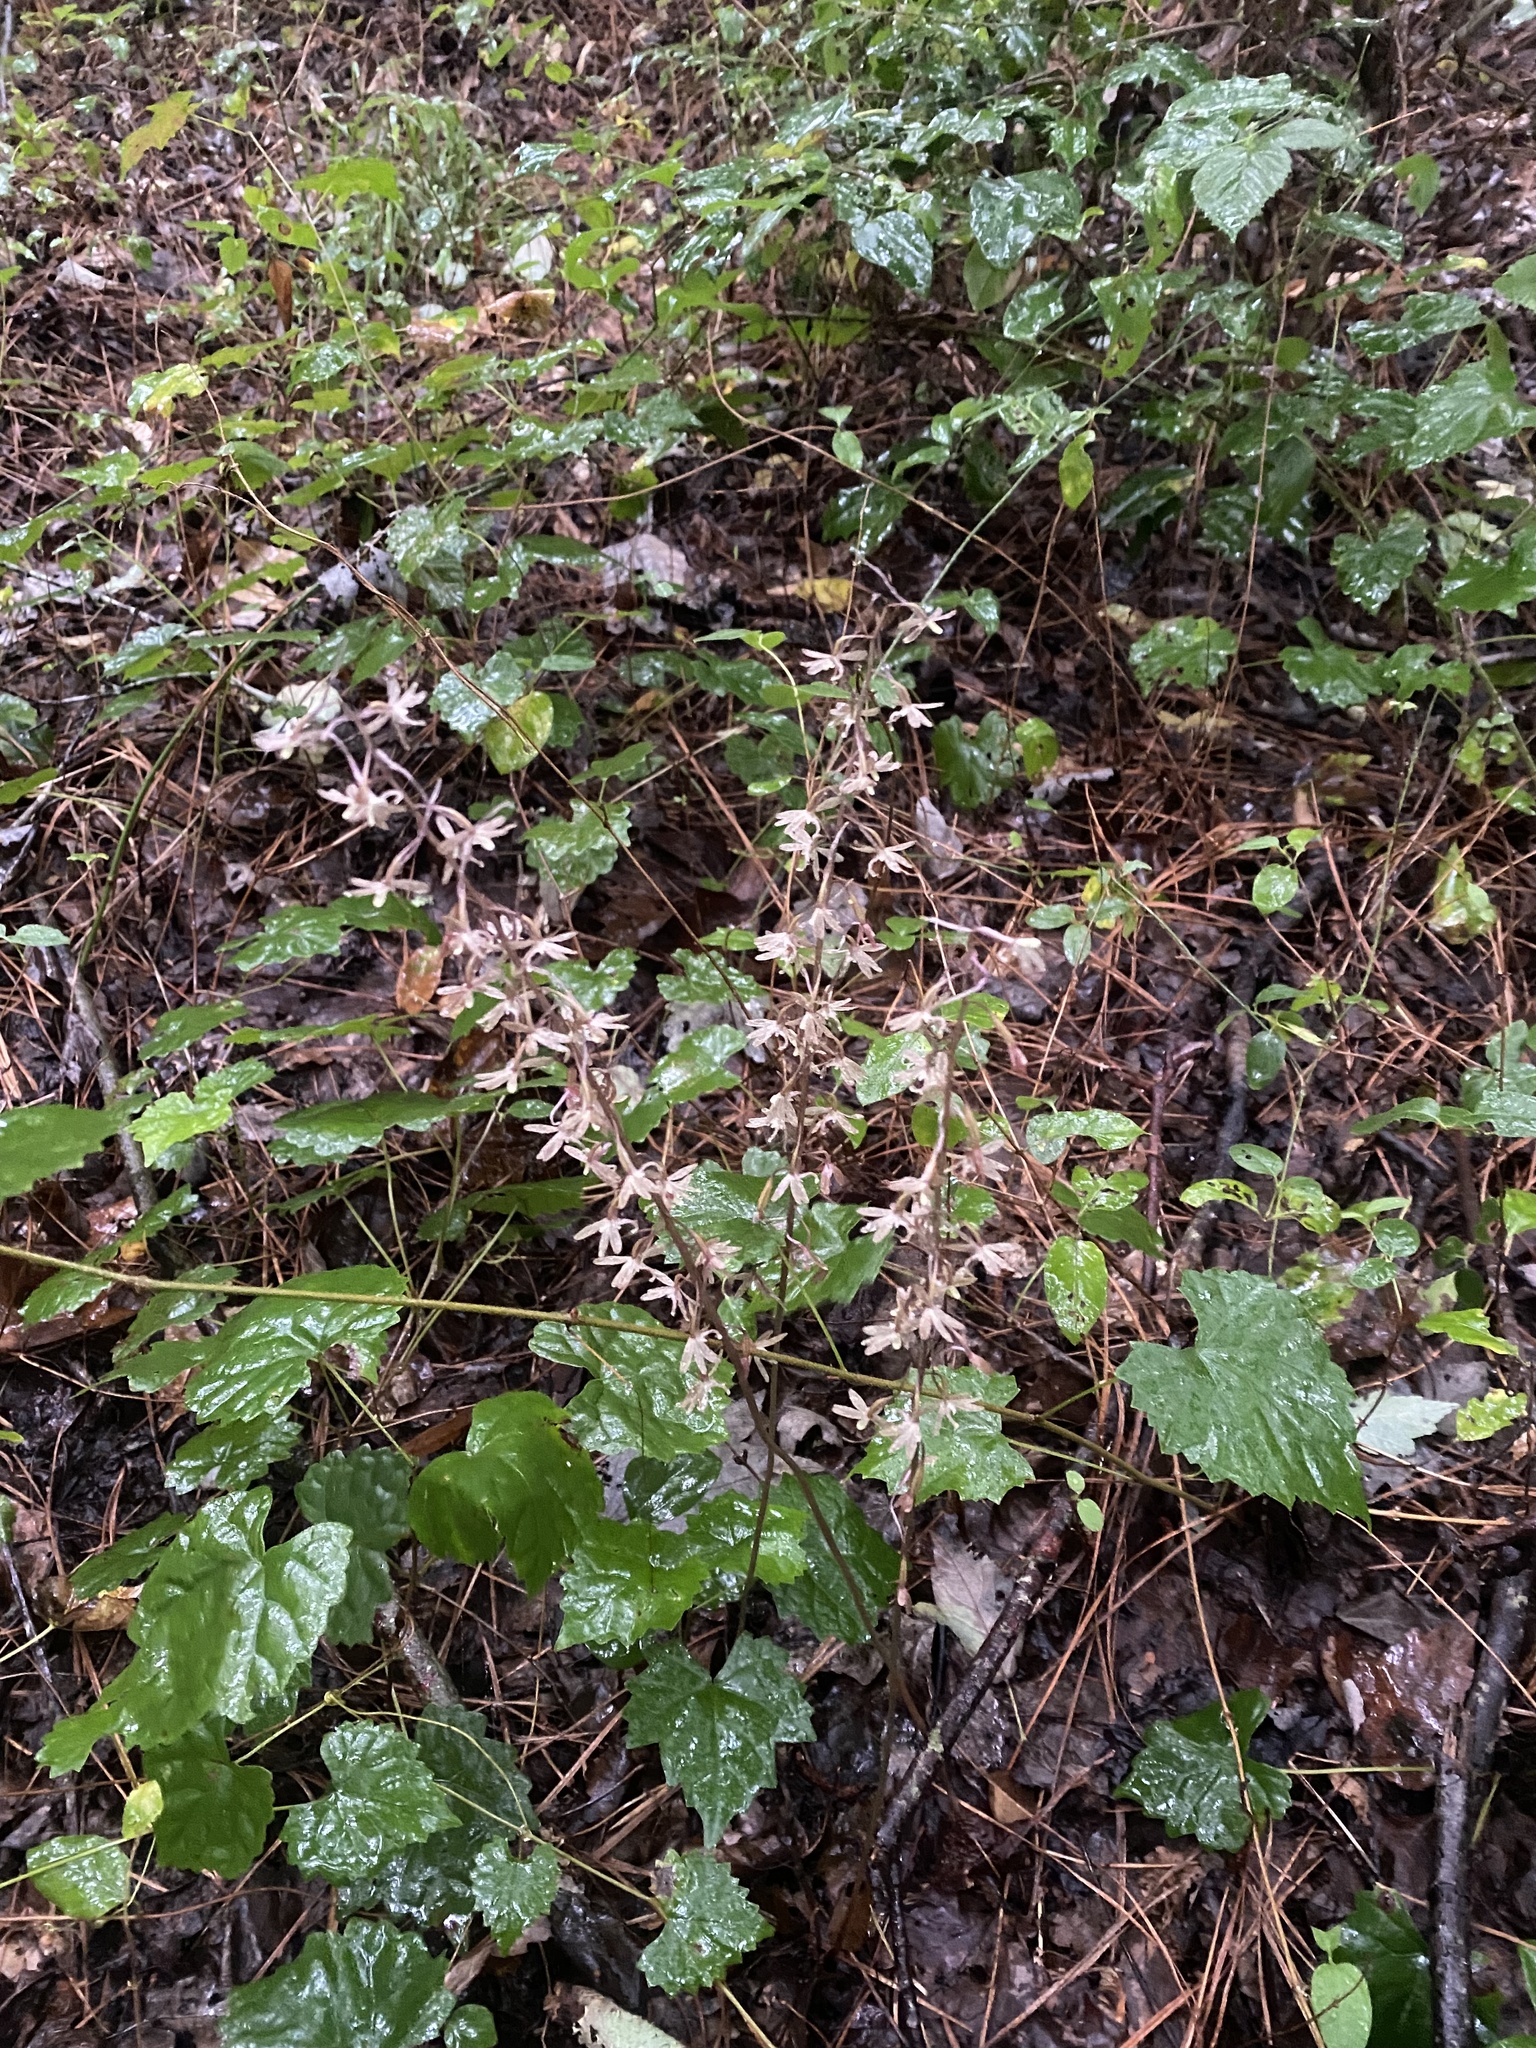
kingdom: Plantae
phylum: Tracheophyta
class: Liliopsida
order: Asparagales
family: Orchidaceae
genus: Tipularia
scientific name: Tipularia discolor
